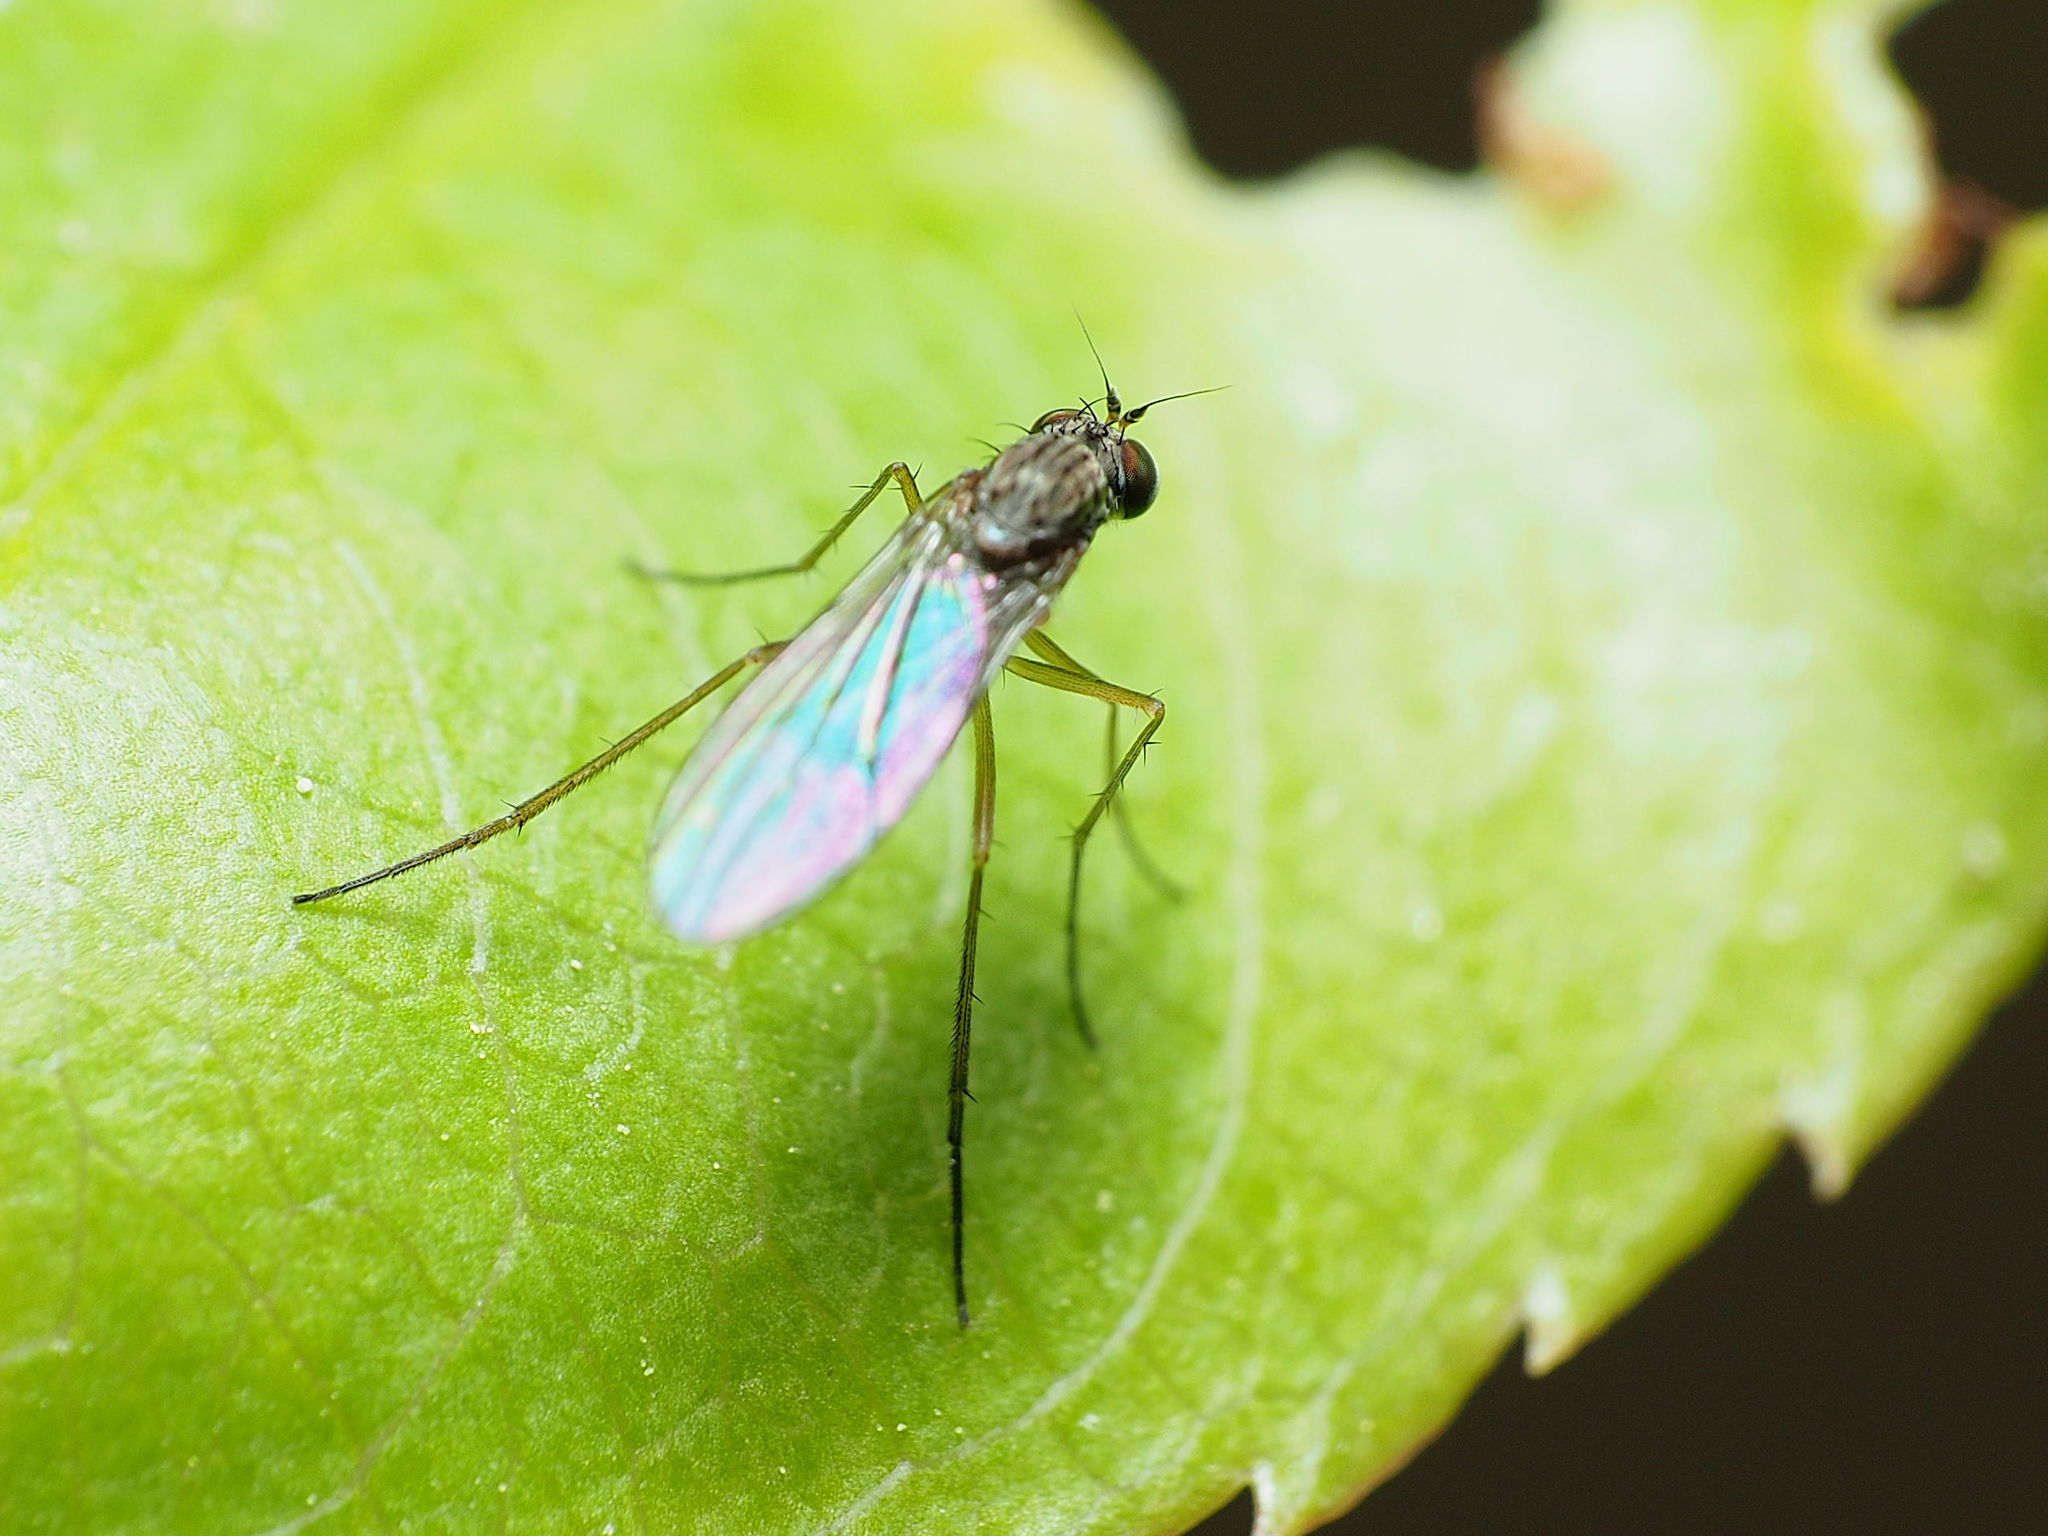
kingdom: Animalia
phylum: Arthropoda
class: Insecta
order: Diptera
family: Dolichopodidae
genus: Sympycnus
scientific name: Sympycnus lineatus
